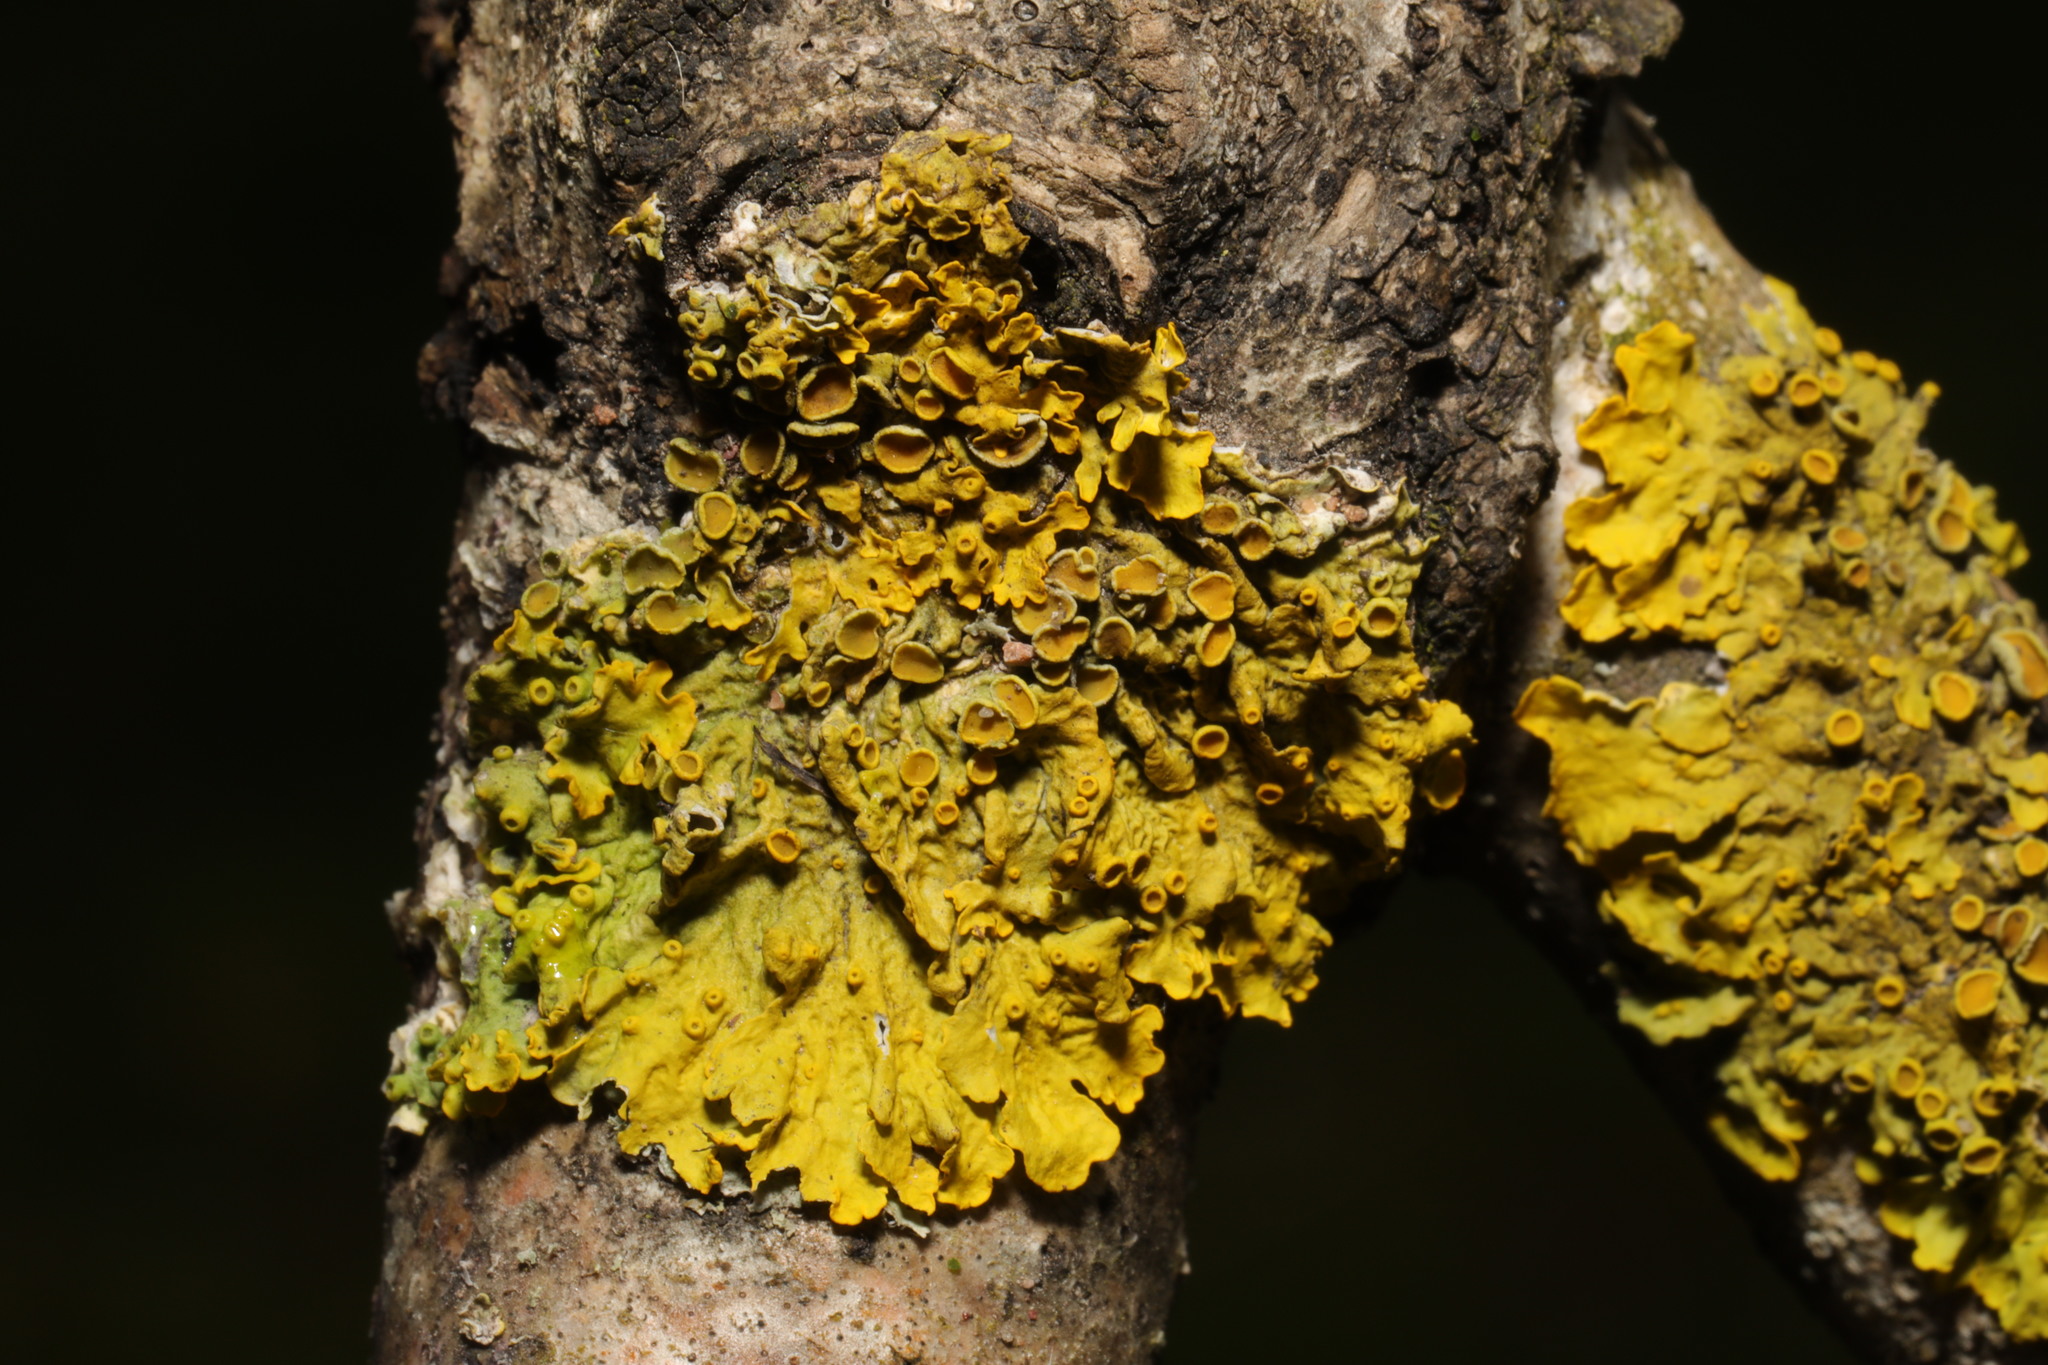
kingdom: Fungi
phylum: Ascomycota
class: Lecanoromycetes
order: Teloschistales
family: Teloschistaceae
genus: Xanthoria
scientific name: Xanthoria parietina
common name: Common orange lichen
